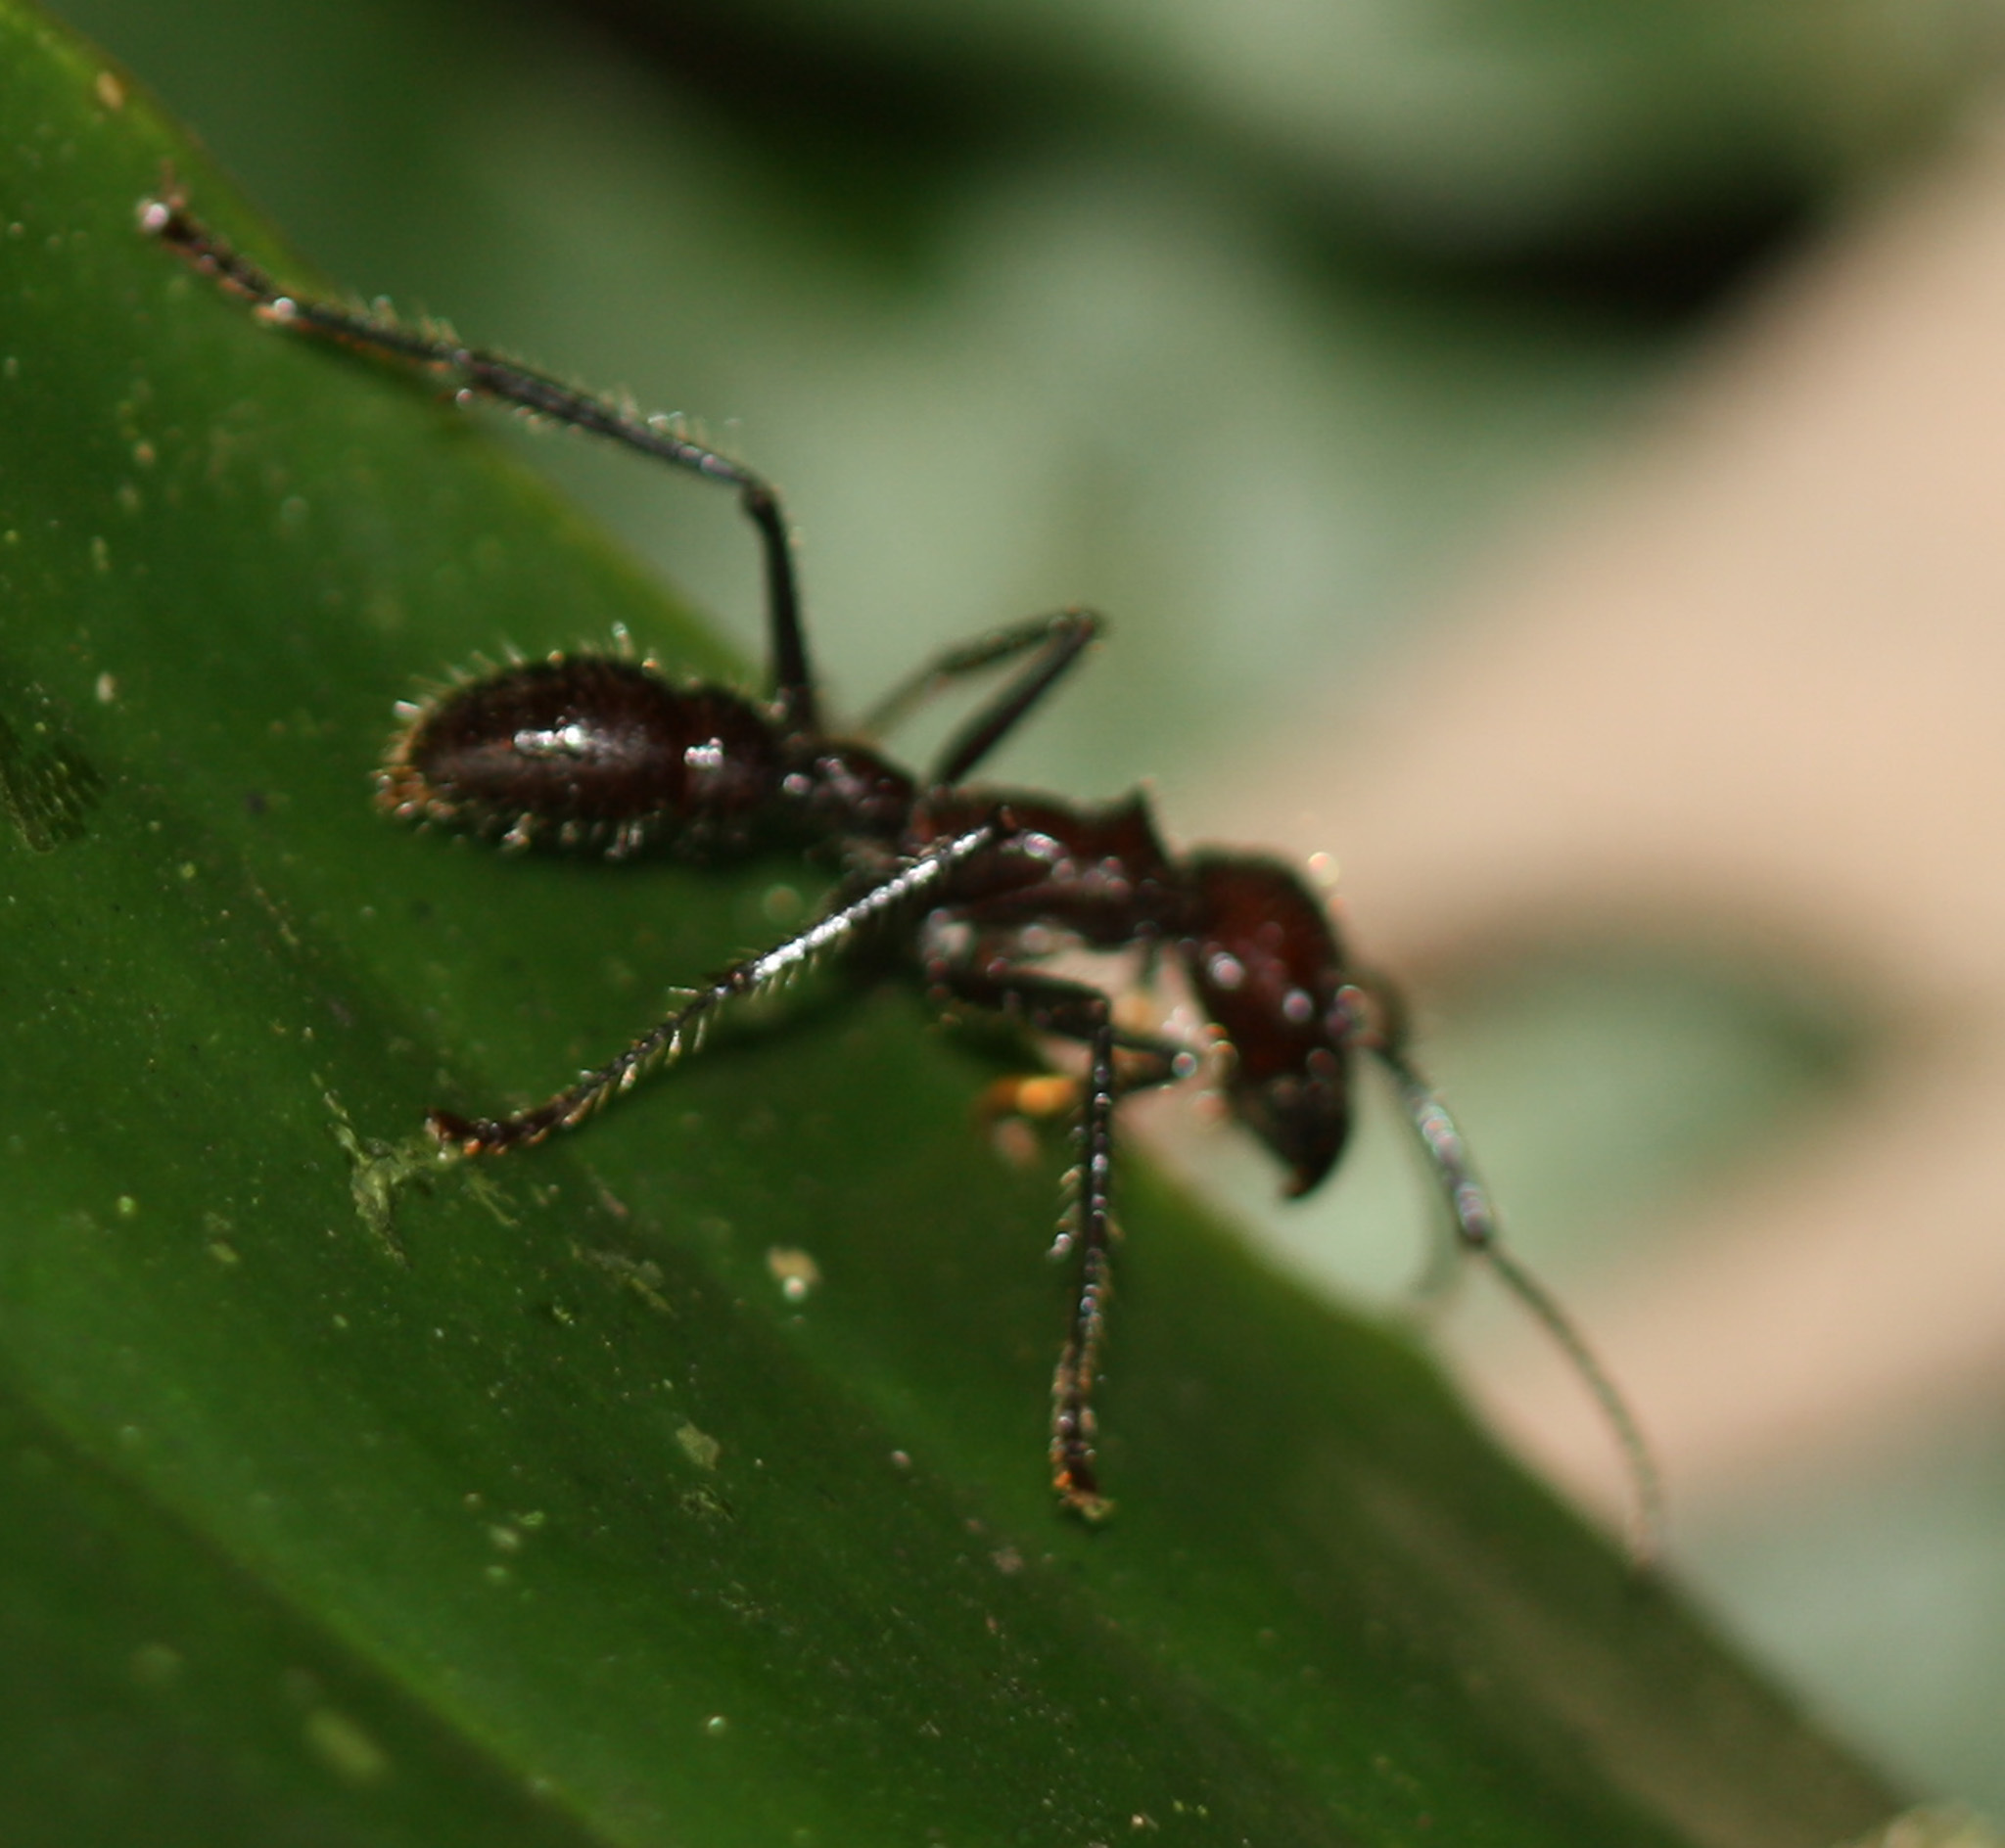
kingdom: Animalia
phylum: Arthropoda
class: Insecta
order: Hymenoptera
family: Formicidae
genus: Paraponera
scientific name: Paraponera clavata
